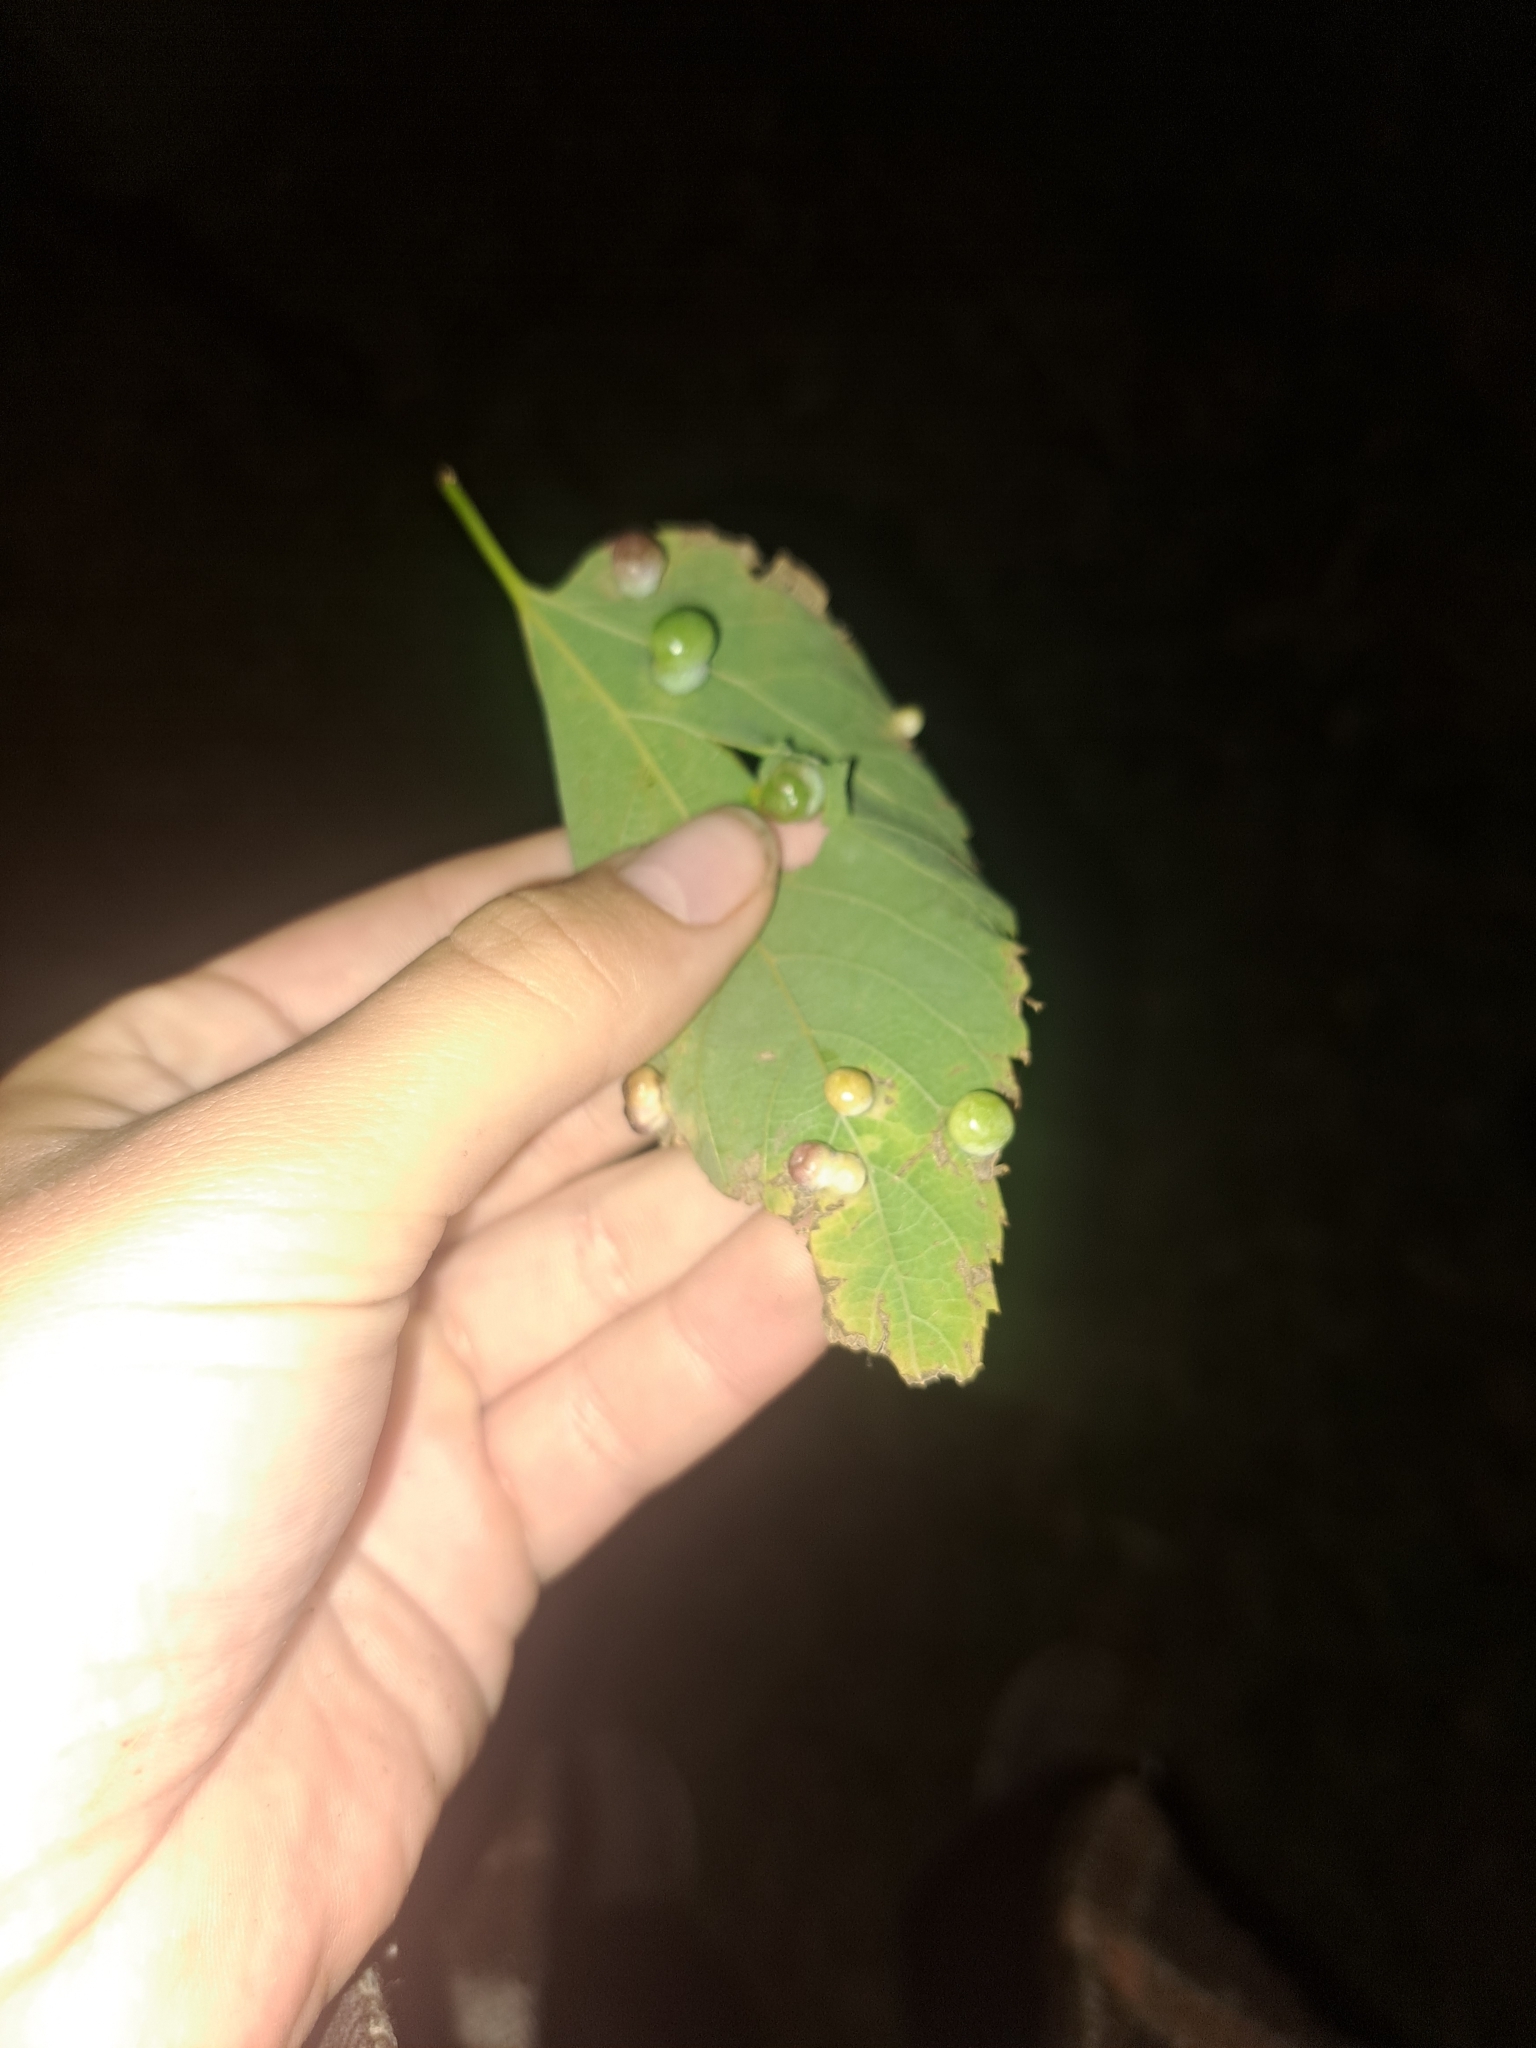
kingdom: Animalia
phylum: Arthropoda
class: Insecta
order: Hemiptera
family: Aphalaridae
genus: Pachypsylla
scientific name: Pachypsylla celtidismamma
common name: Hackberry nipplegall psyllid
